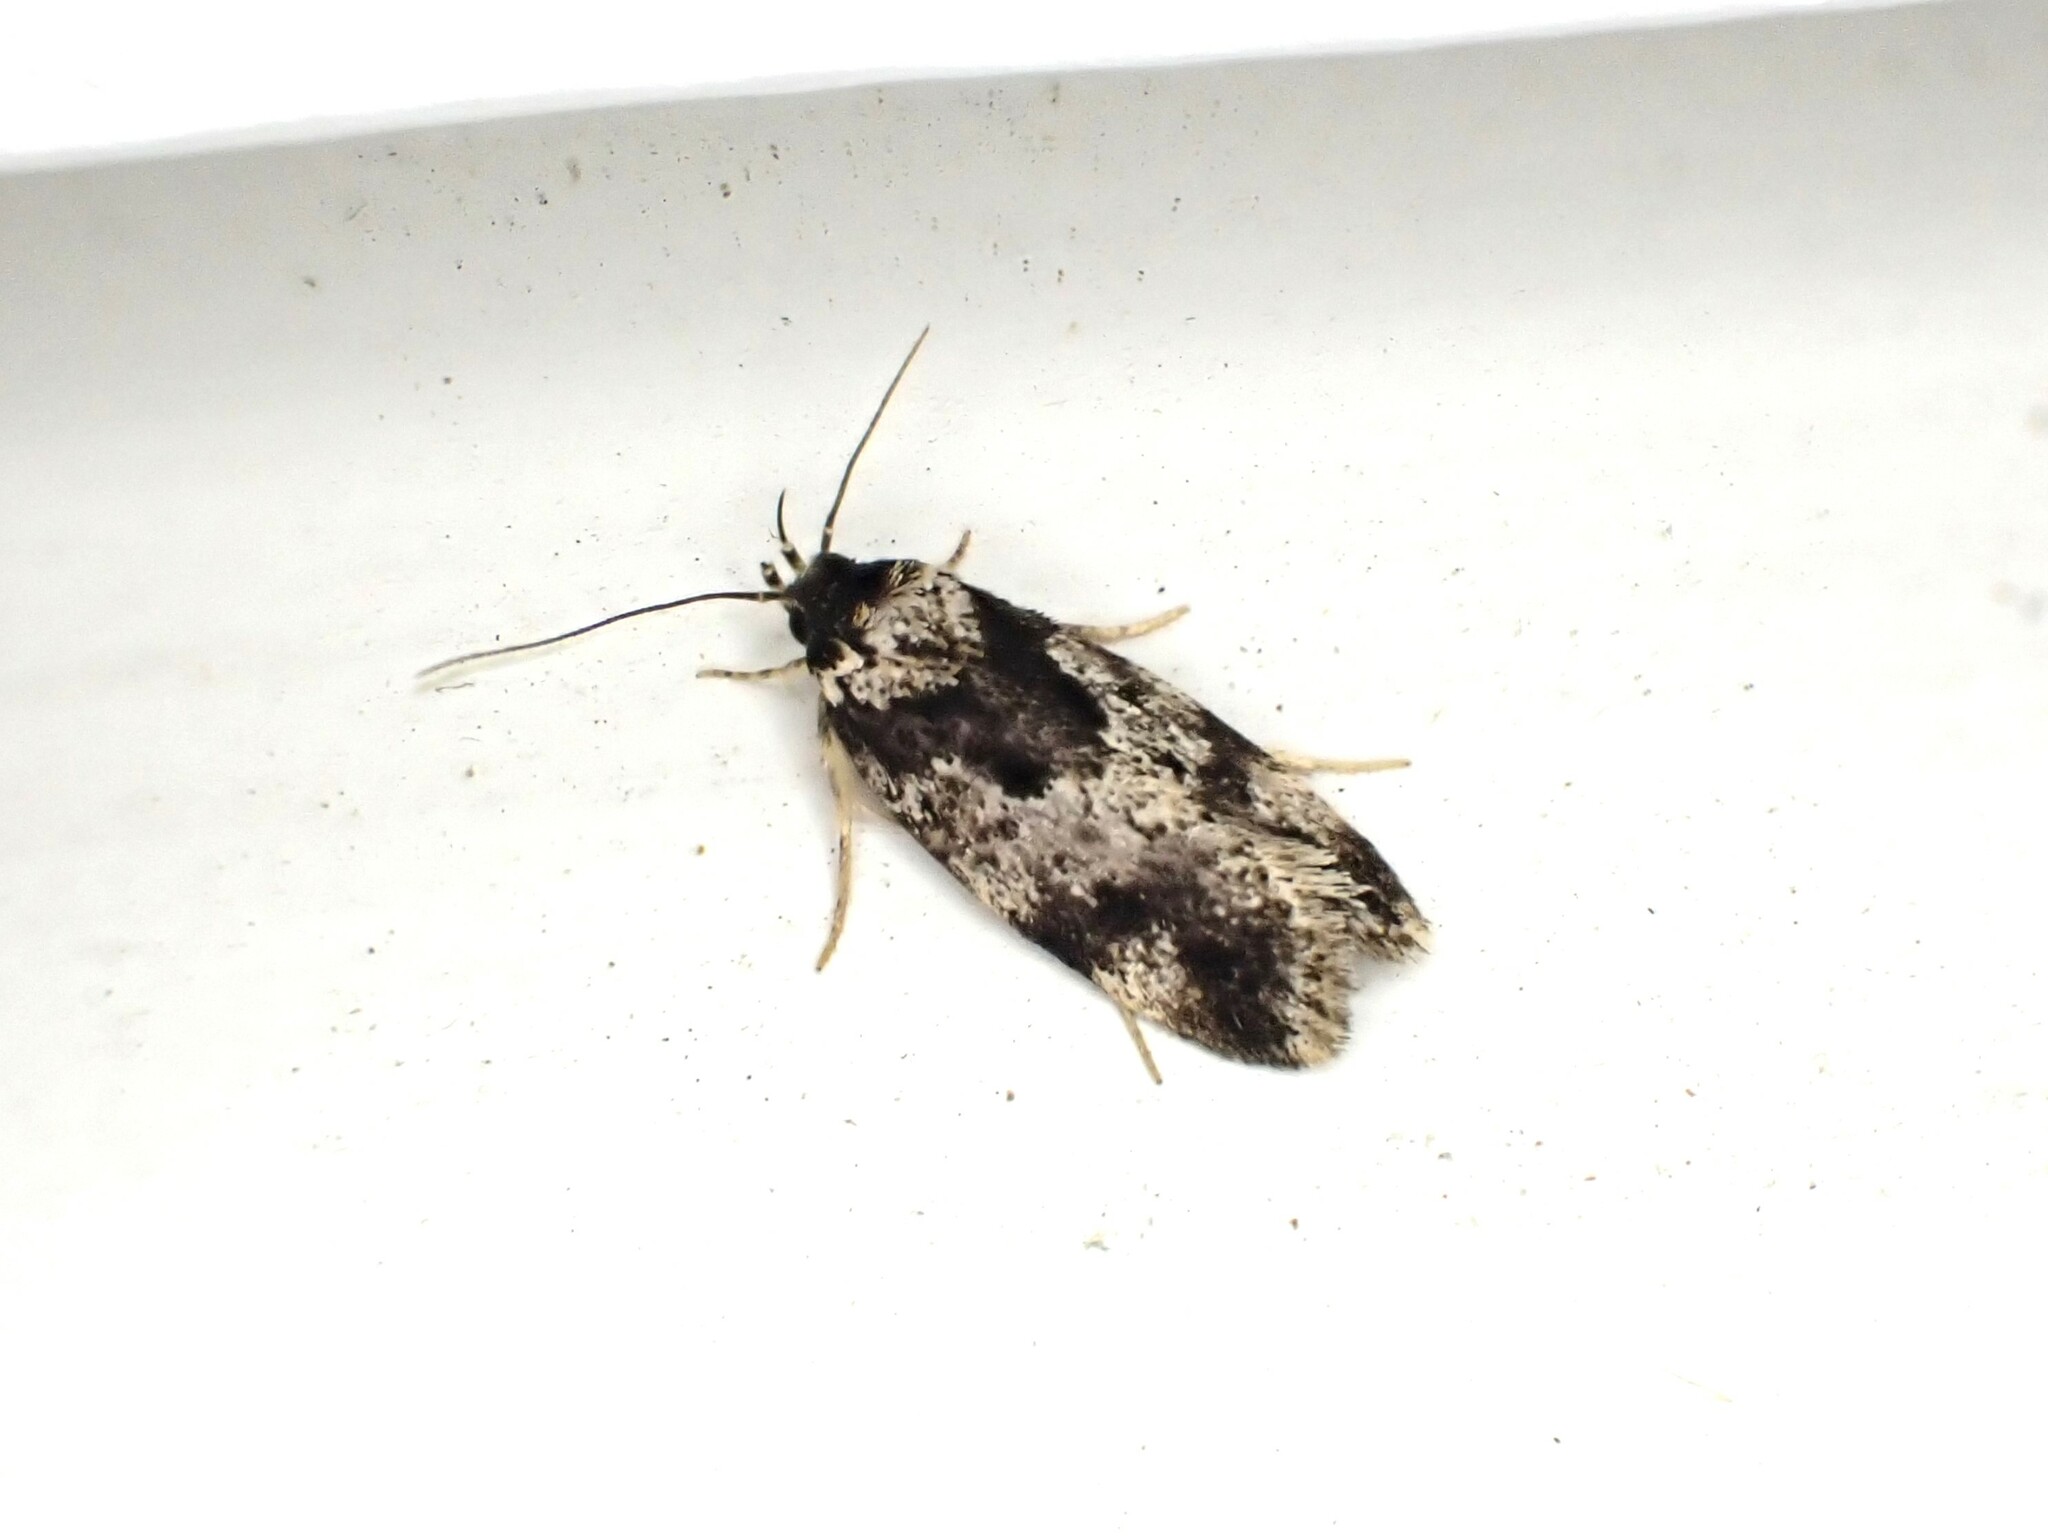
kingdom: Animalia
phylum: Arthropoda
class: Insecta
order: Lepidoptera
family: Oecophoridae
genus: Barea
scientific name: Barea confusella
